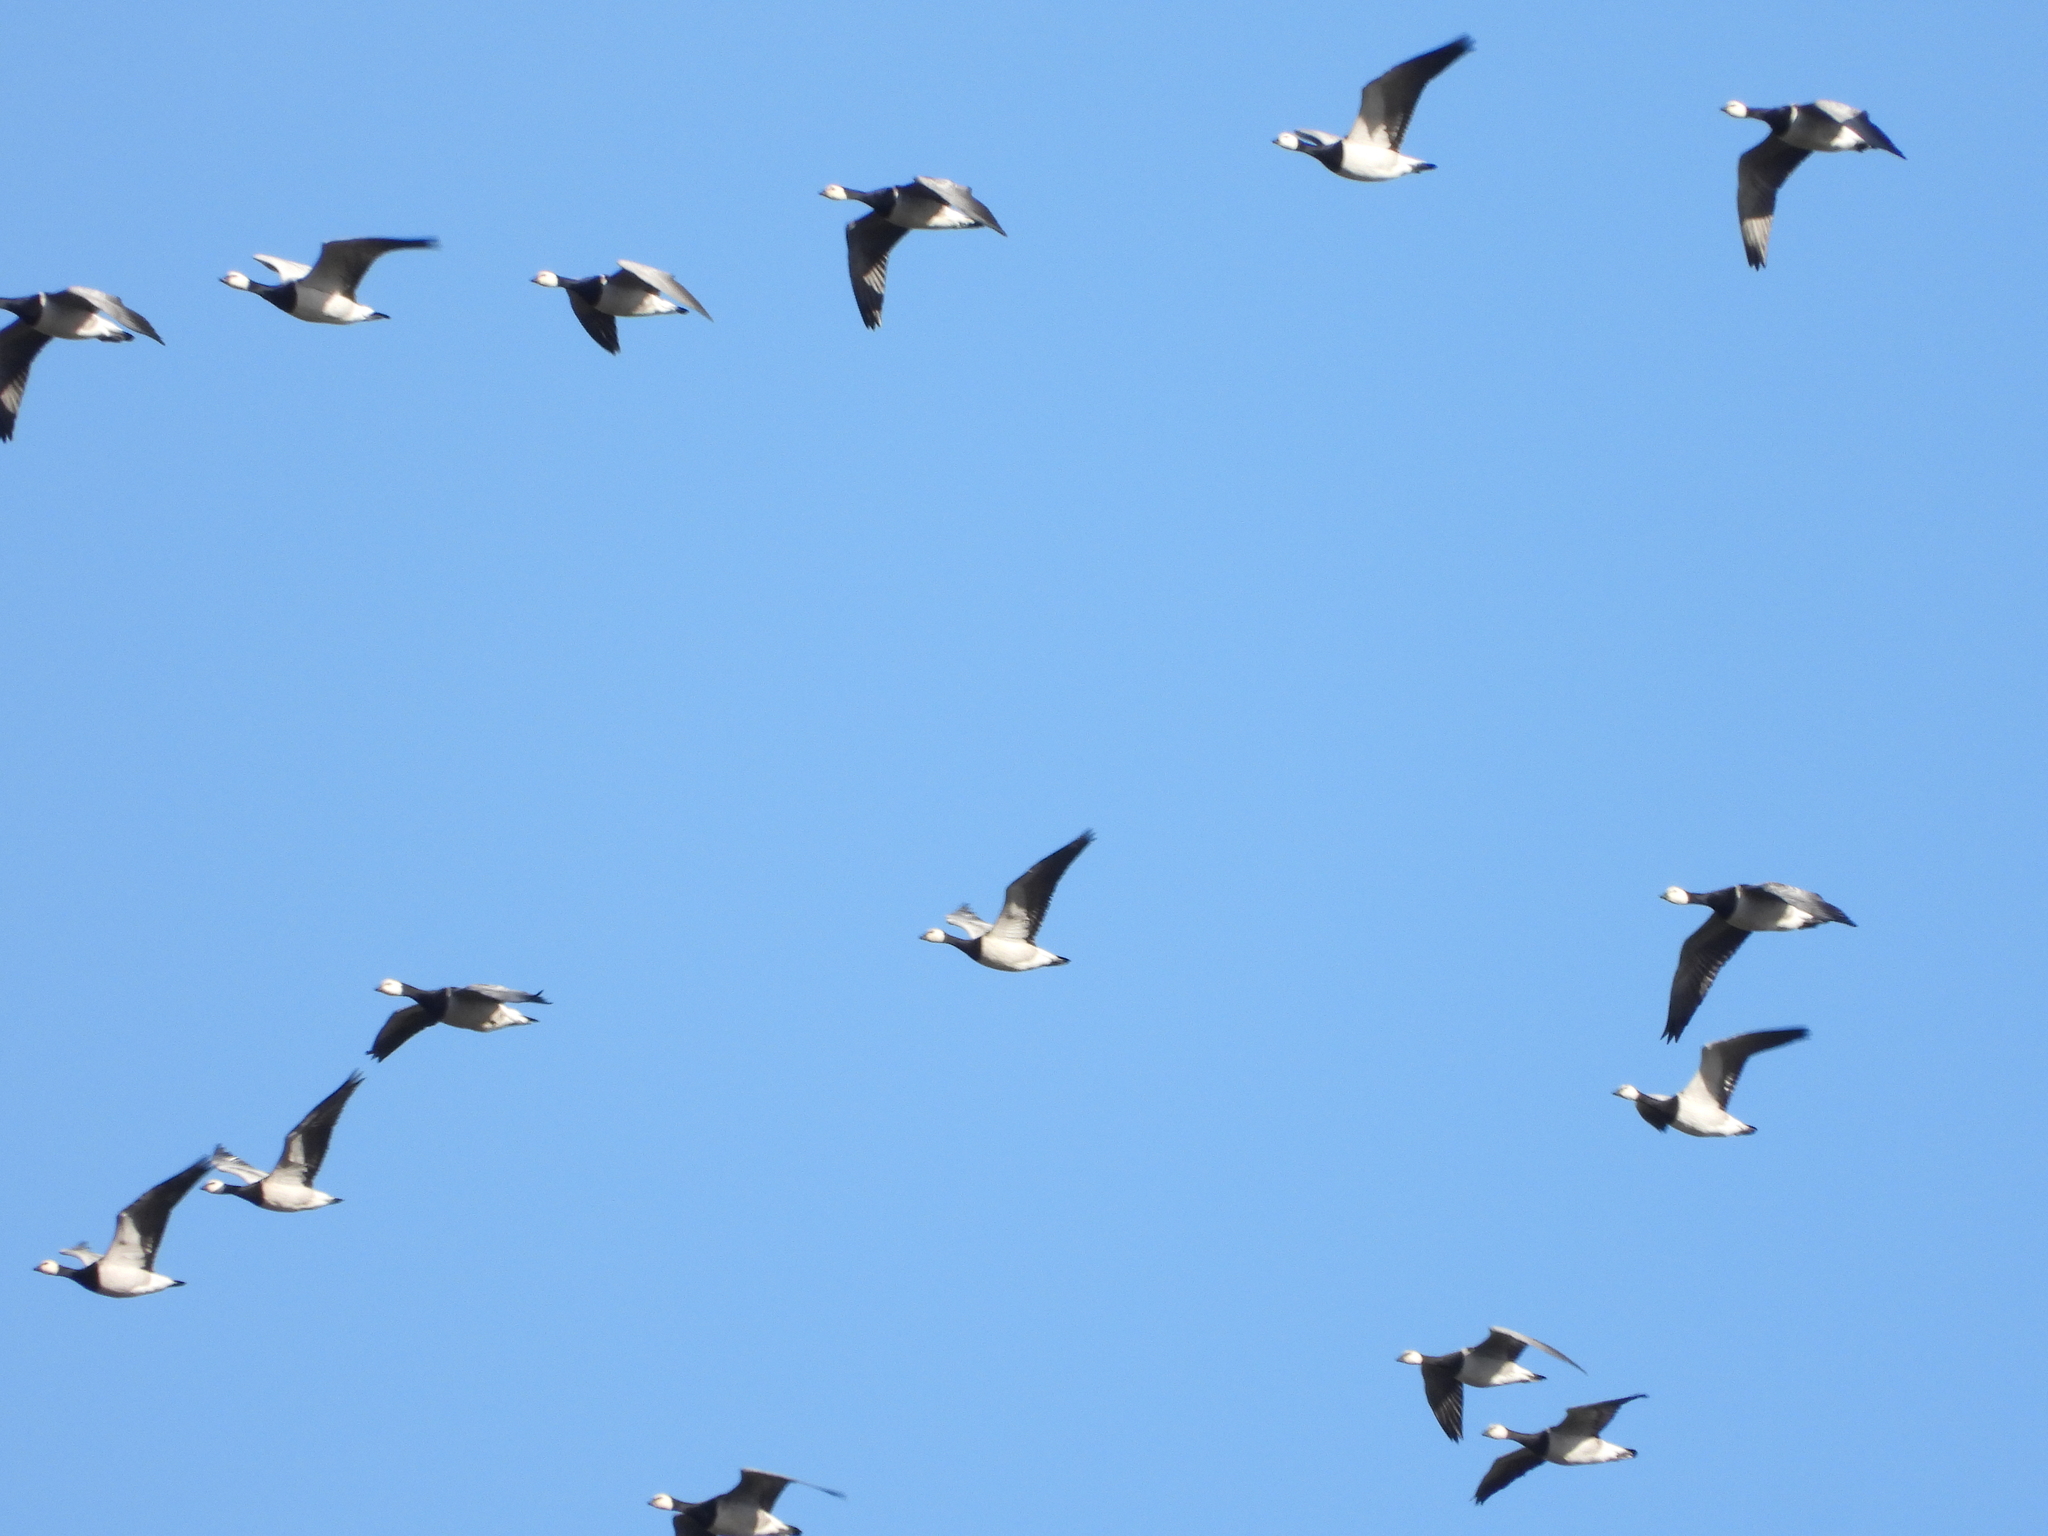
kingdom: Animalia
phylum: Chordata
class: Aves
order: Anseriformes
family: Anatidae
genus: Branta
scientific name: Branta leucopsis
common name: Barnacle goose
